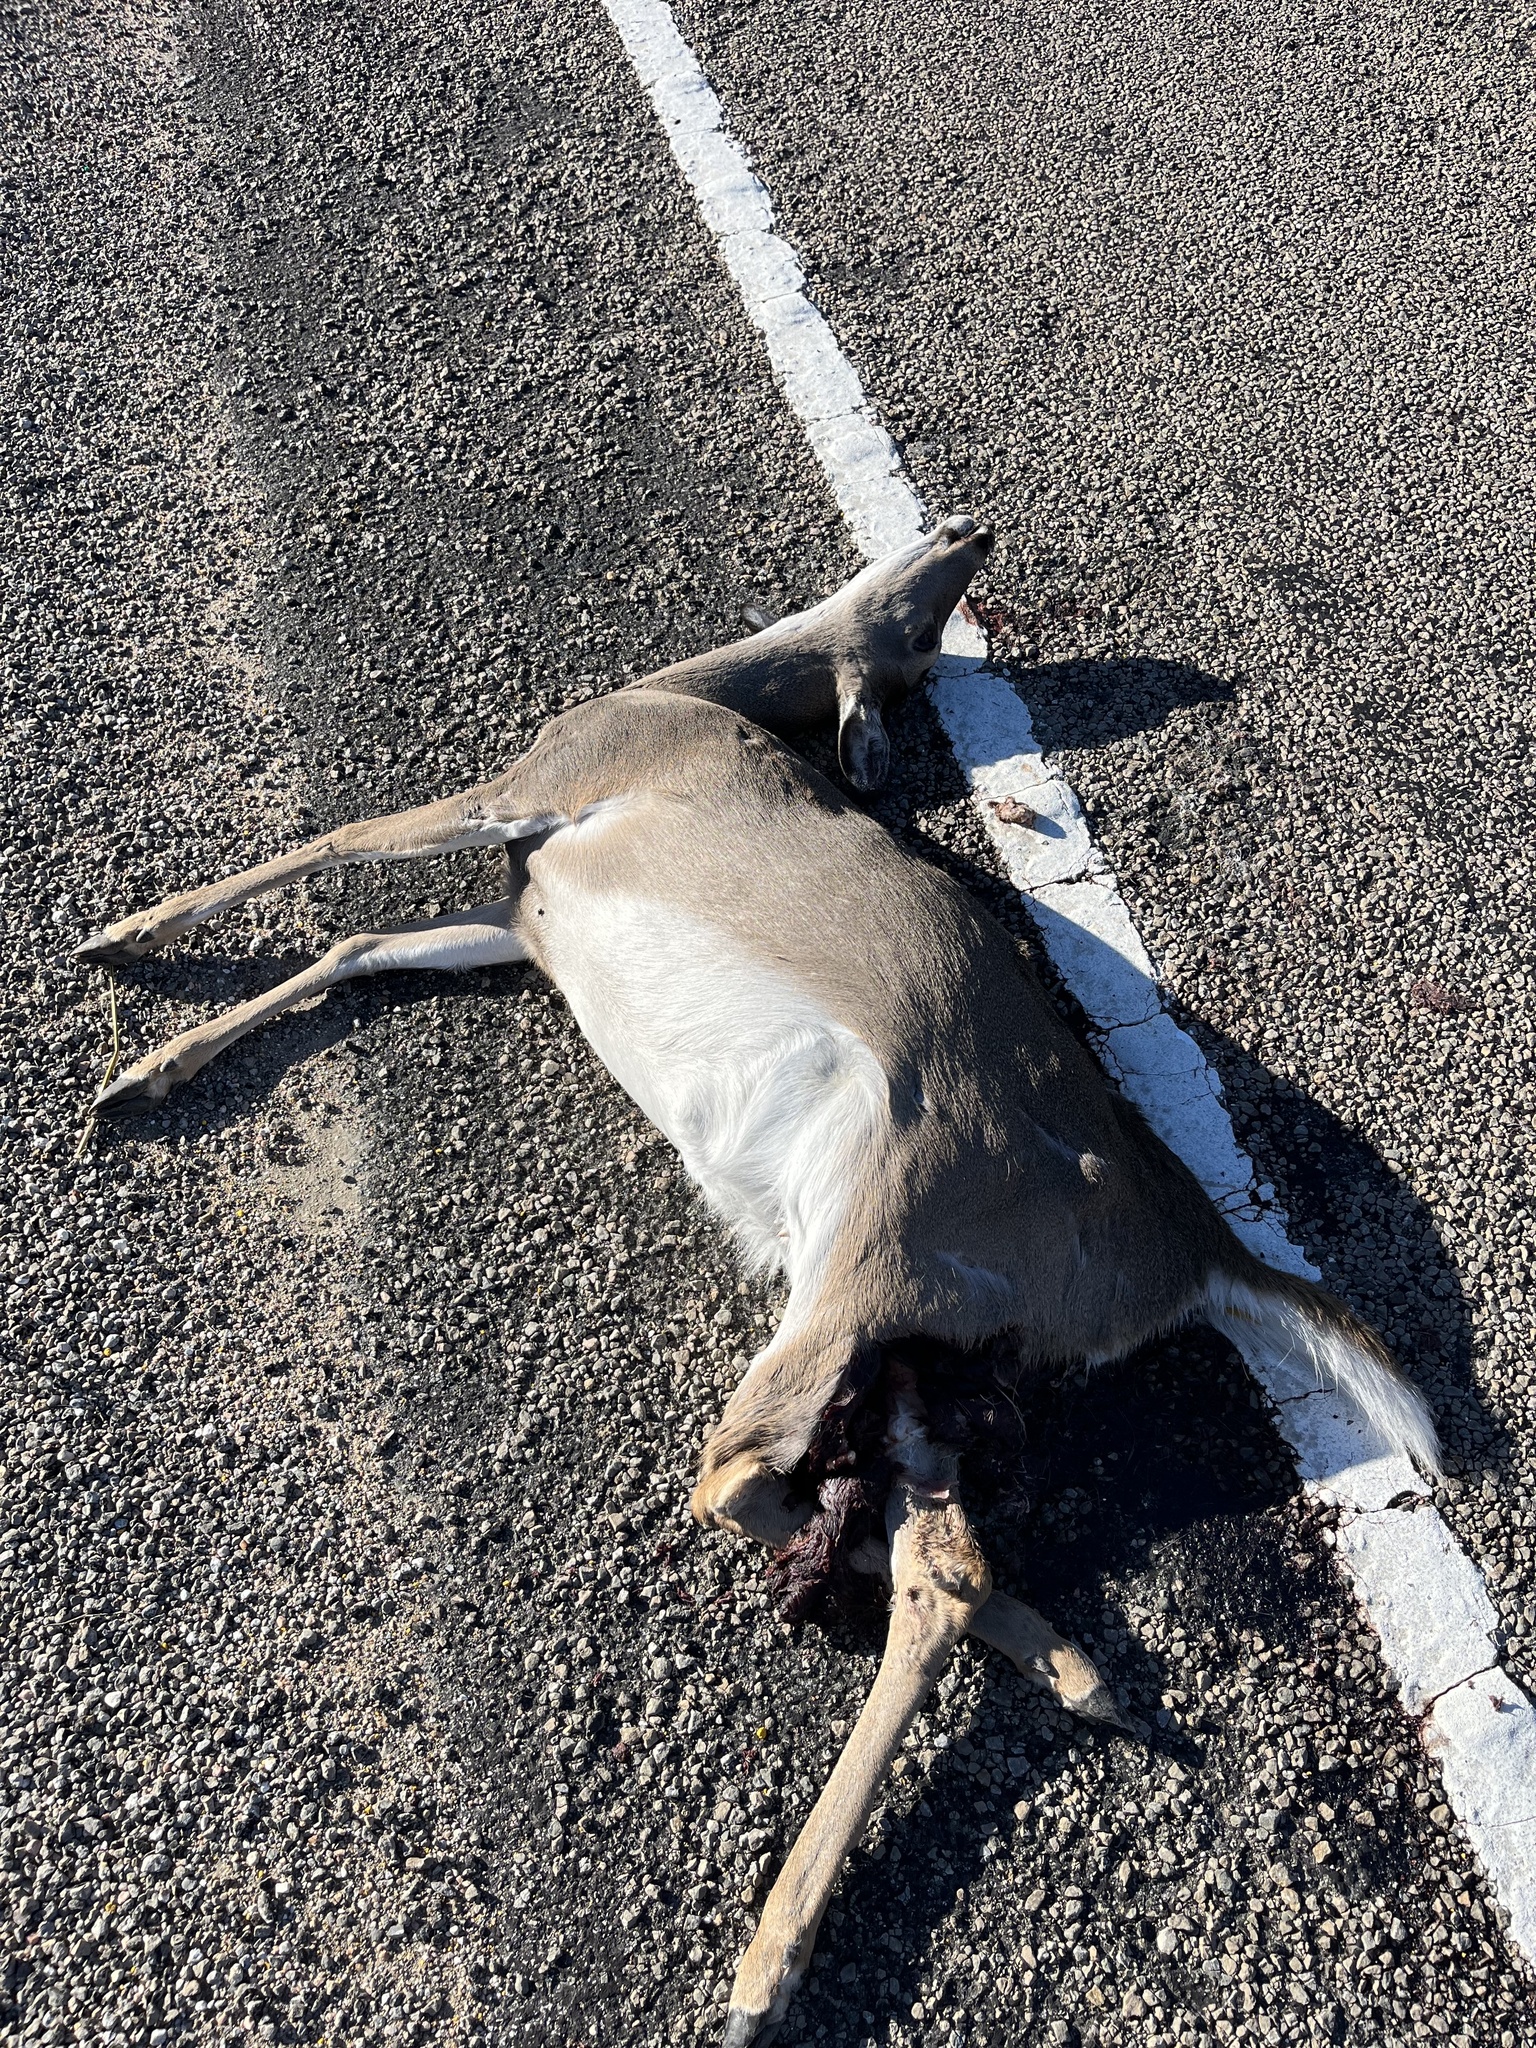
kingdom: Animalia
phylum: Chordata
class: Mammalia
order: Artiodactyla
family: Cervidae
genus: Odocoileus
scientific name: Odocoileus virginianus
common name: White-tailed deer
